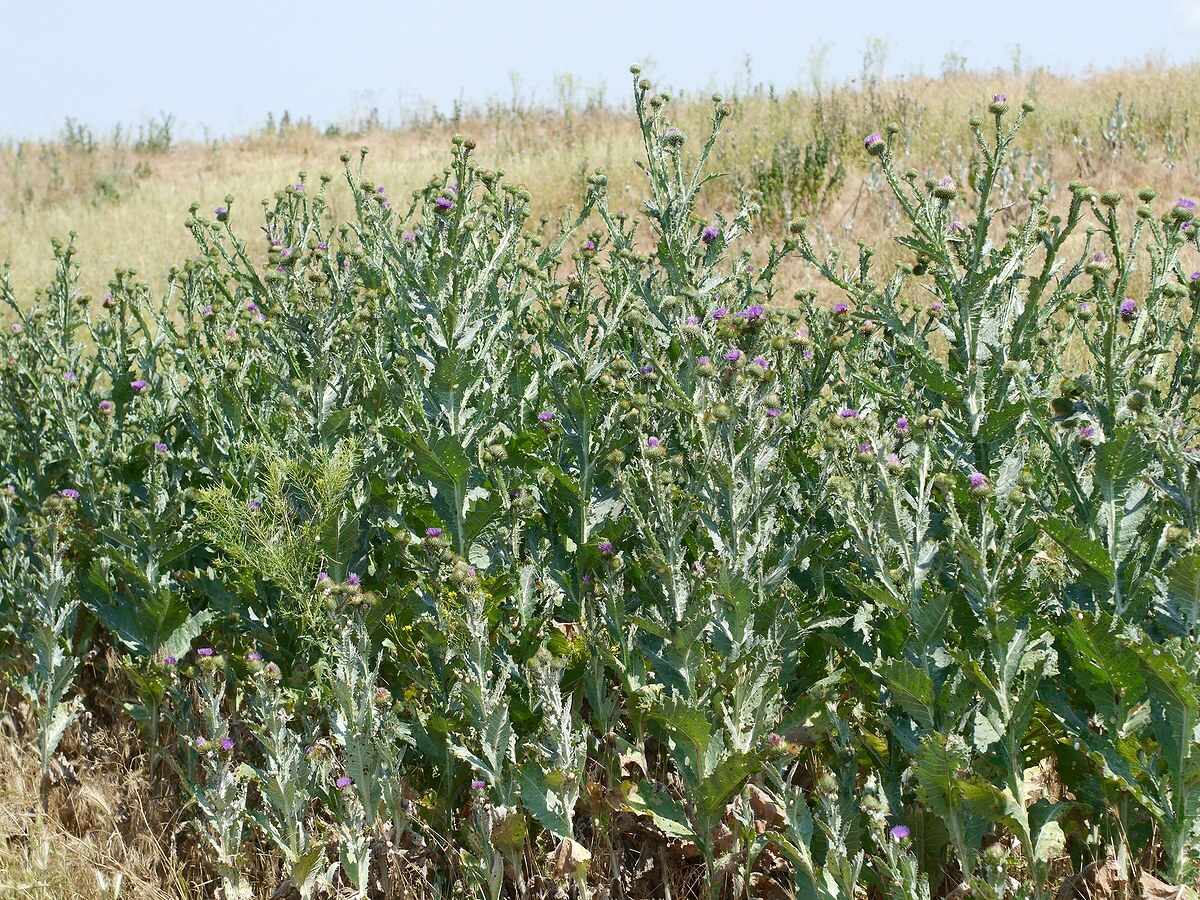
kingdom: Plantae
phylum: Tracheophyta
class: Magnoliopsida
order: Asterales
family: Asteraceae
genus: Onopordum
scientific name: Onopordum acanthium
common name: Scotch thistle
